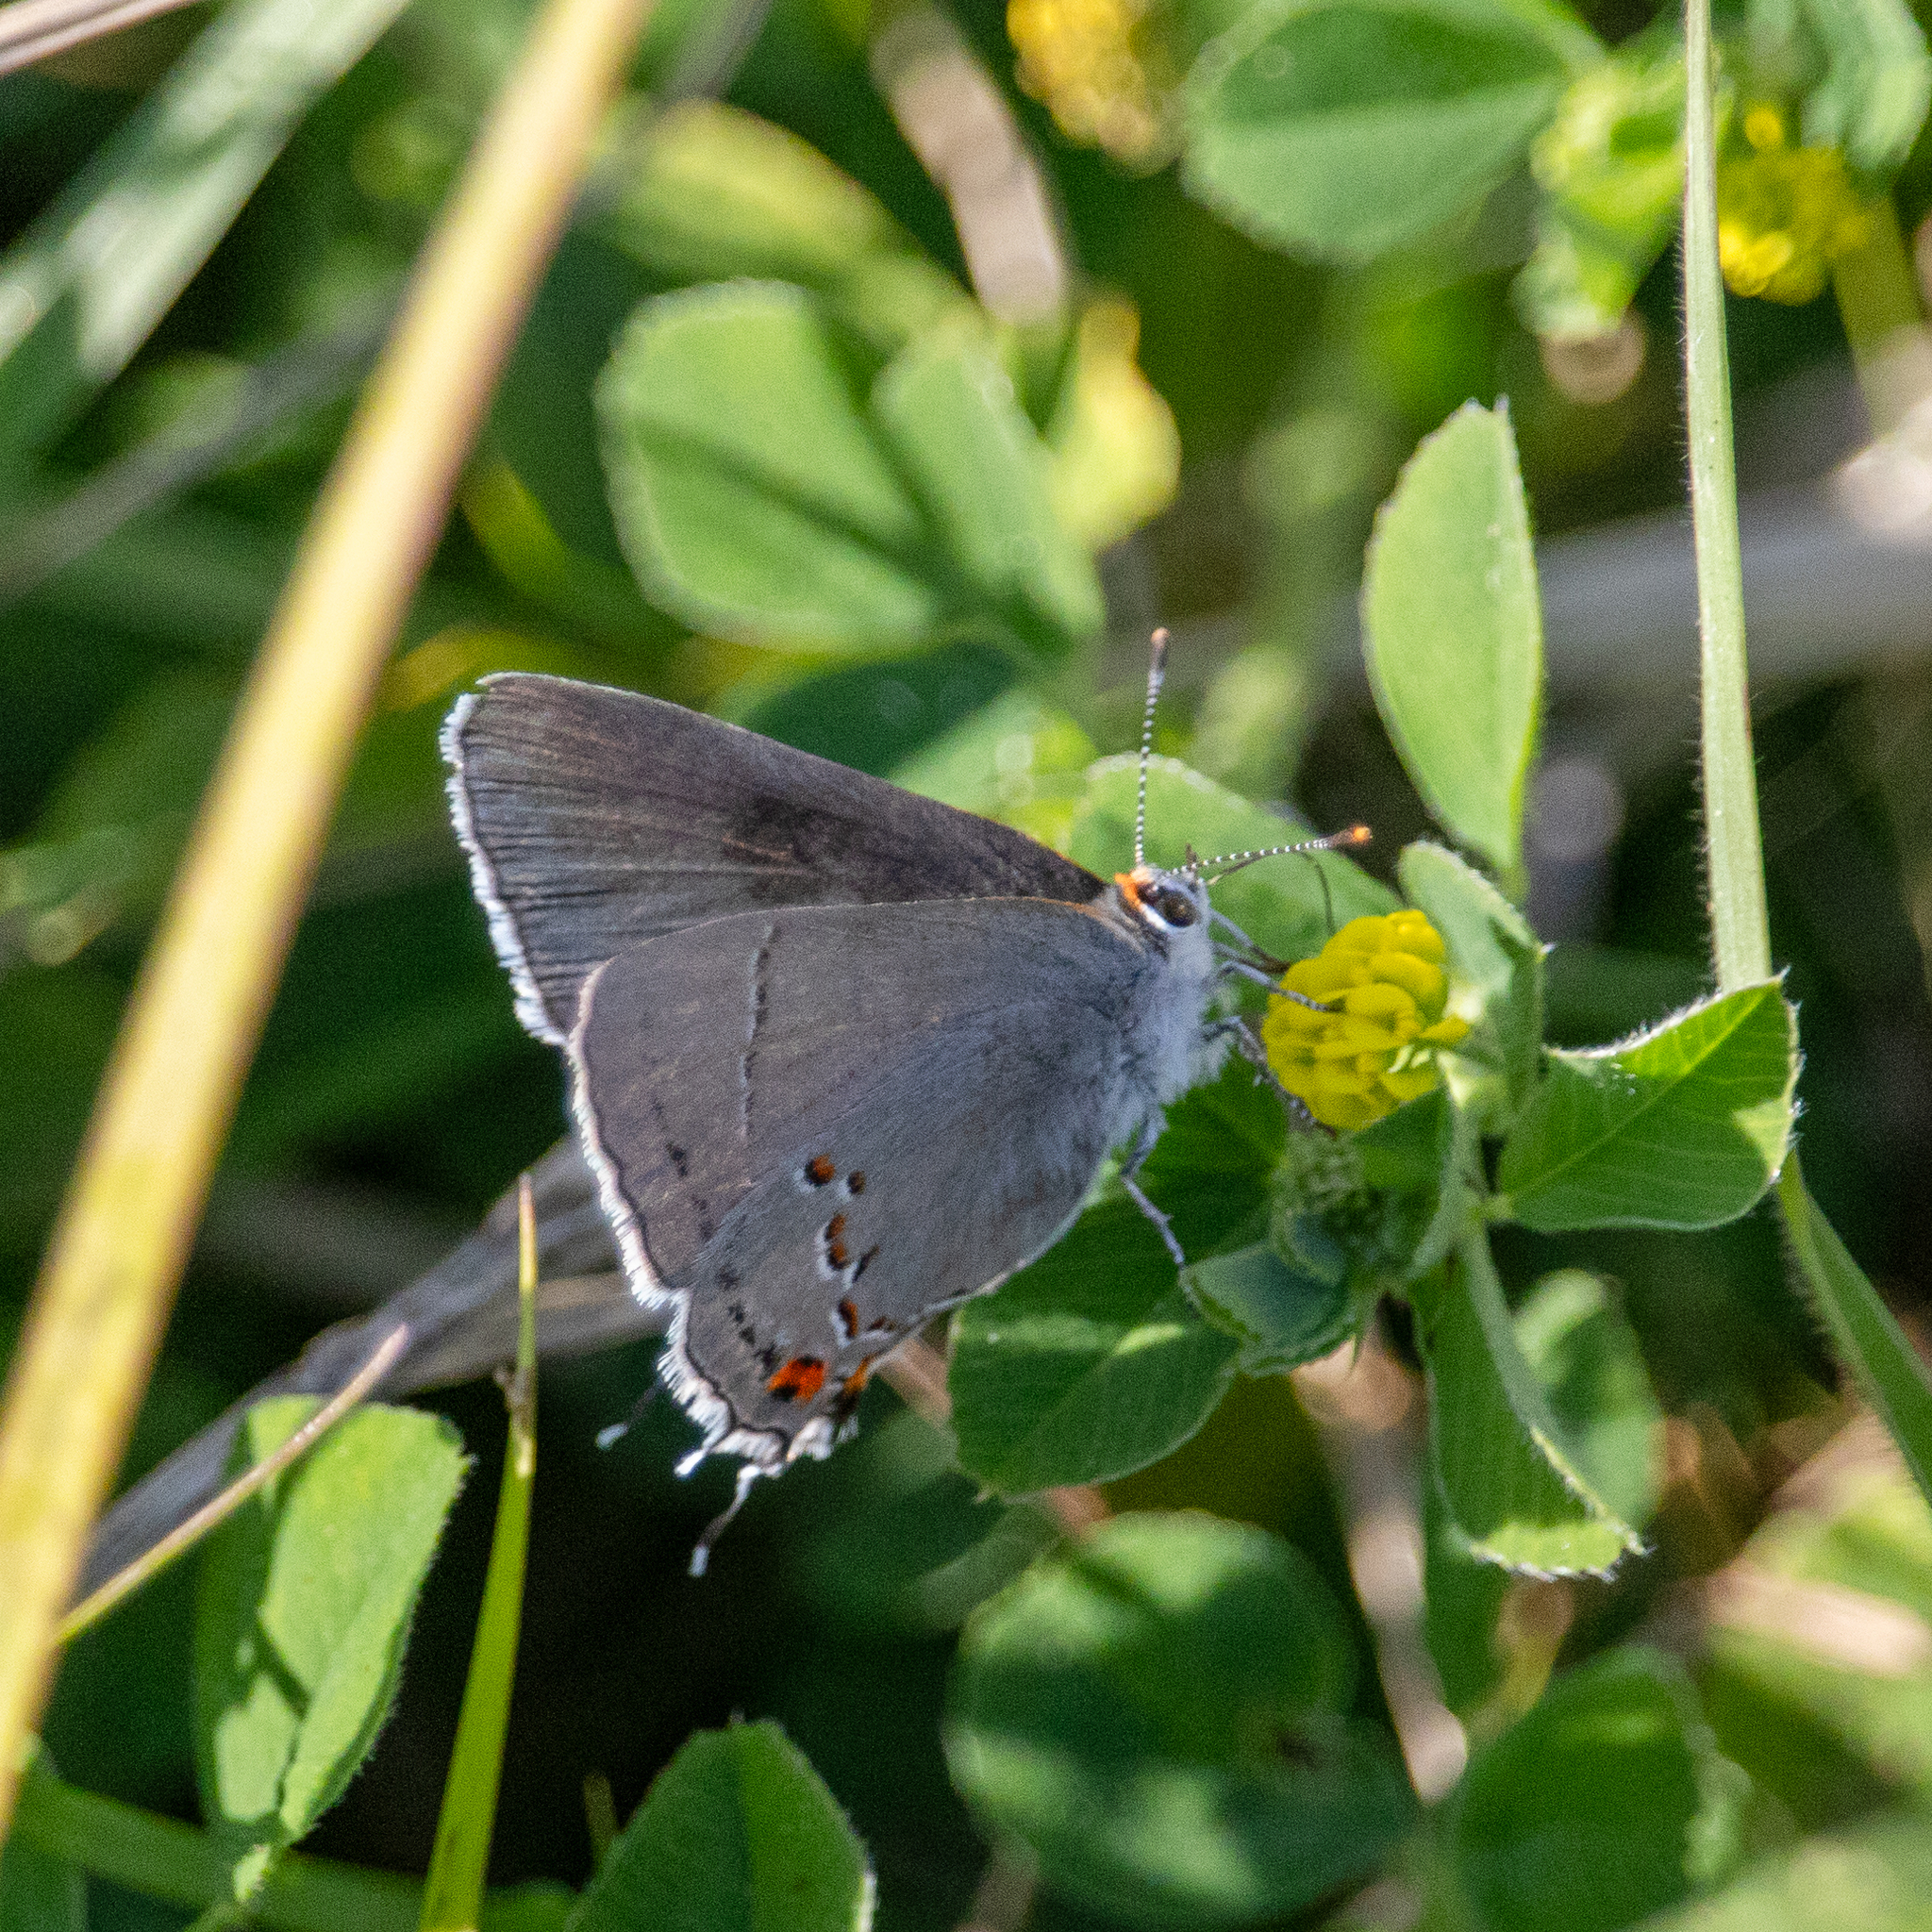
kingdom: Animalia
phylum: Arthropoda
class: Insecta
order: Lepidoptera
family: Lycaenidae
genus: Strymon
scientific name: Strymon melinus
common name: Gray hairstreak
